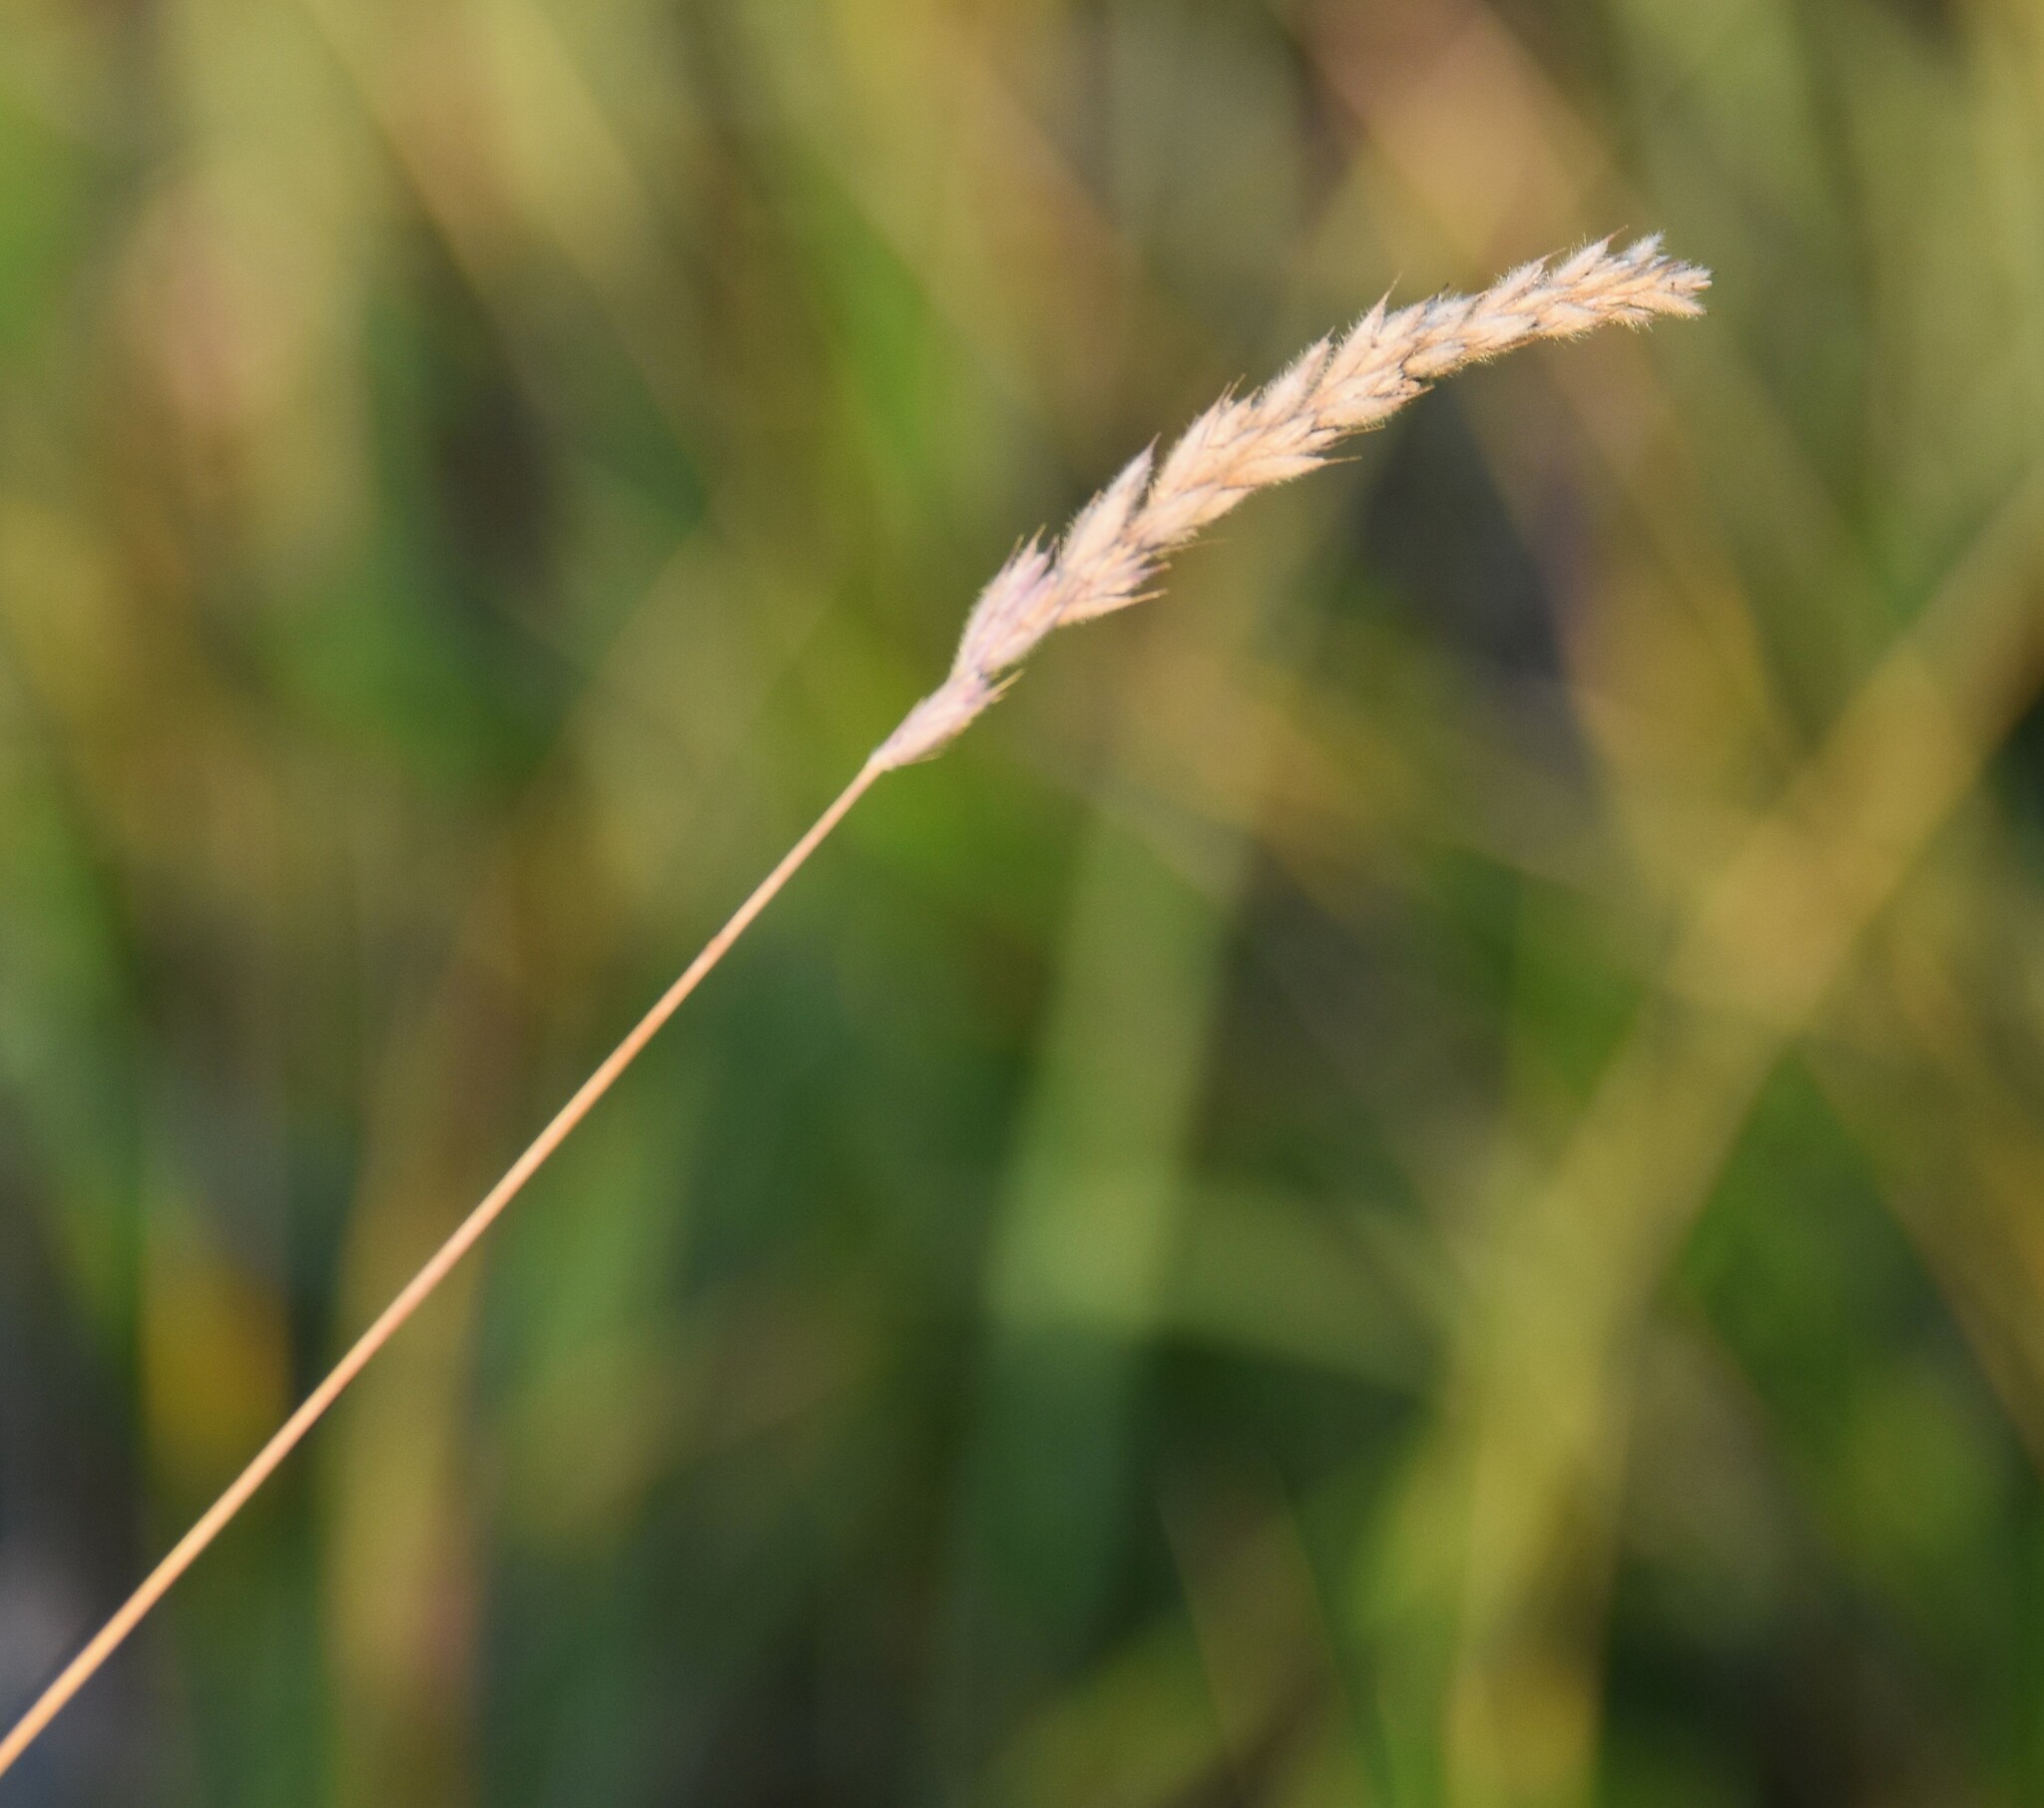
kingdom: Plantae
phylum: Tracheophyta
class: Liliopsida
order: Poales
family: Poaceae
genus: Leymus
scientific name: Leymus innovatus
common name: Boreal wild rye
